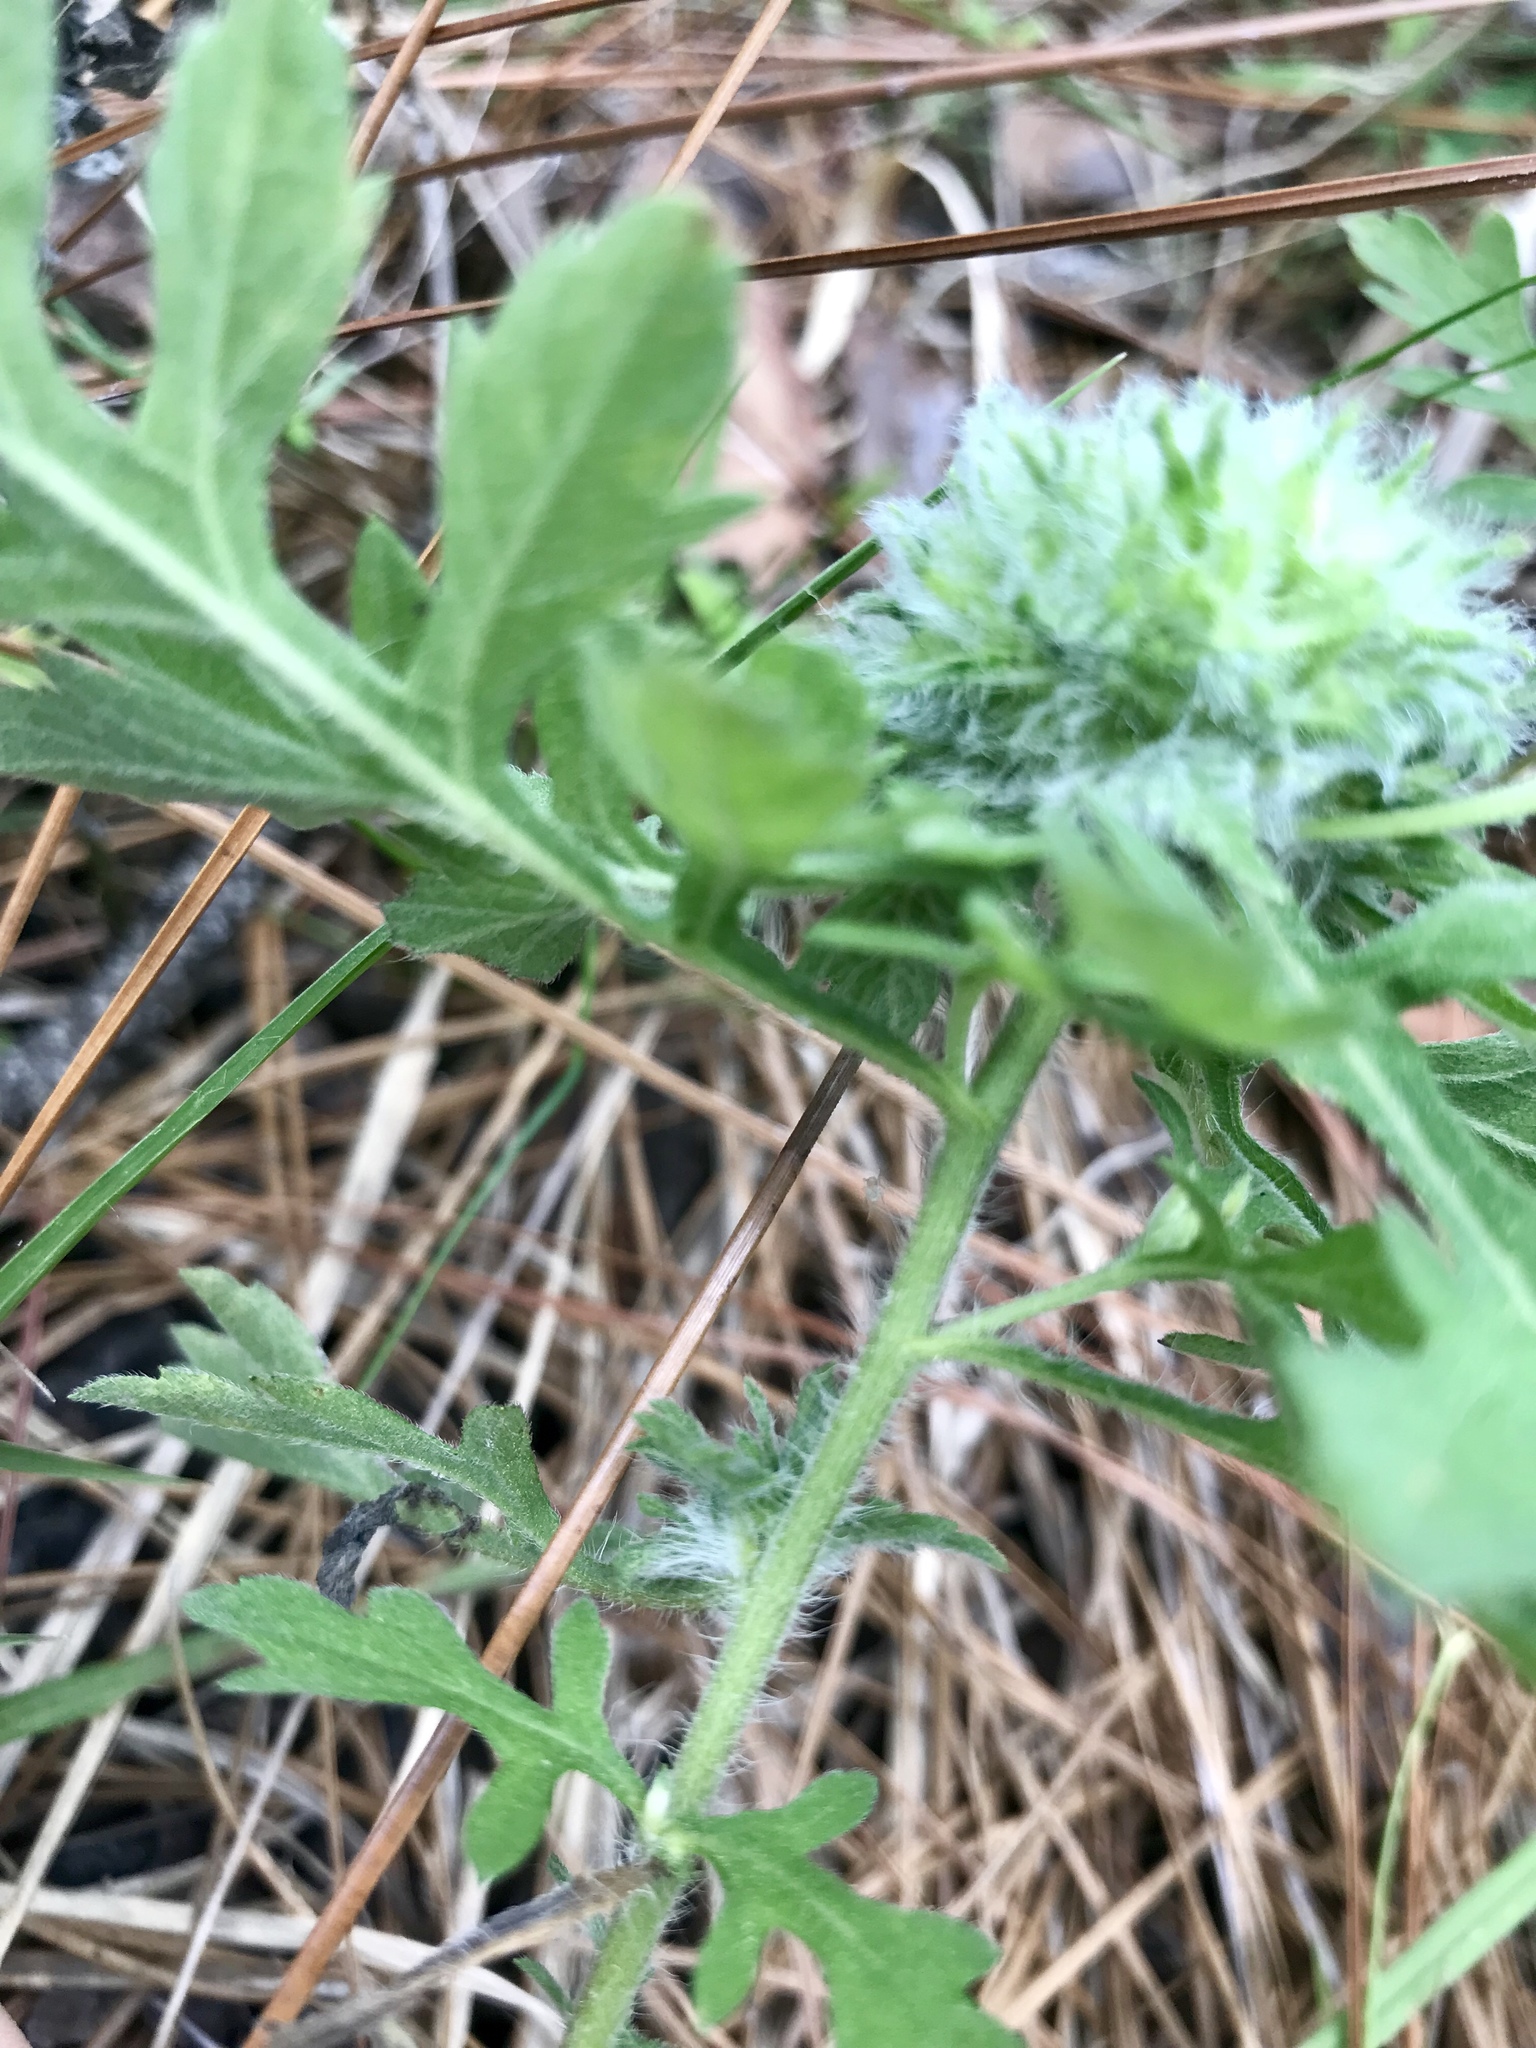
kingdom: Plantae
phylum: Tracheophyta
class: Magnoliopsida
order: Asterales
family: Asteraceae
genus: Ambrosia
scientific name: Ambrosia artemisiifolia
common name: Annual ragweed
